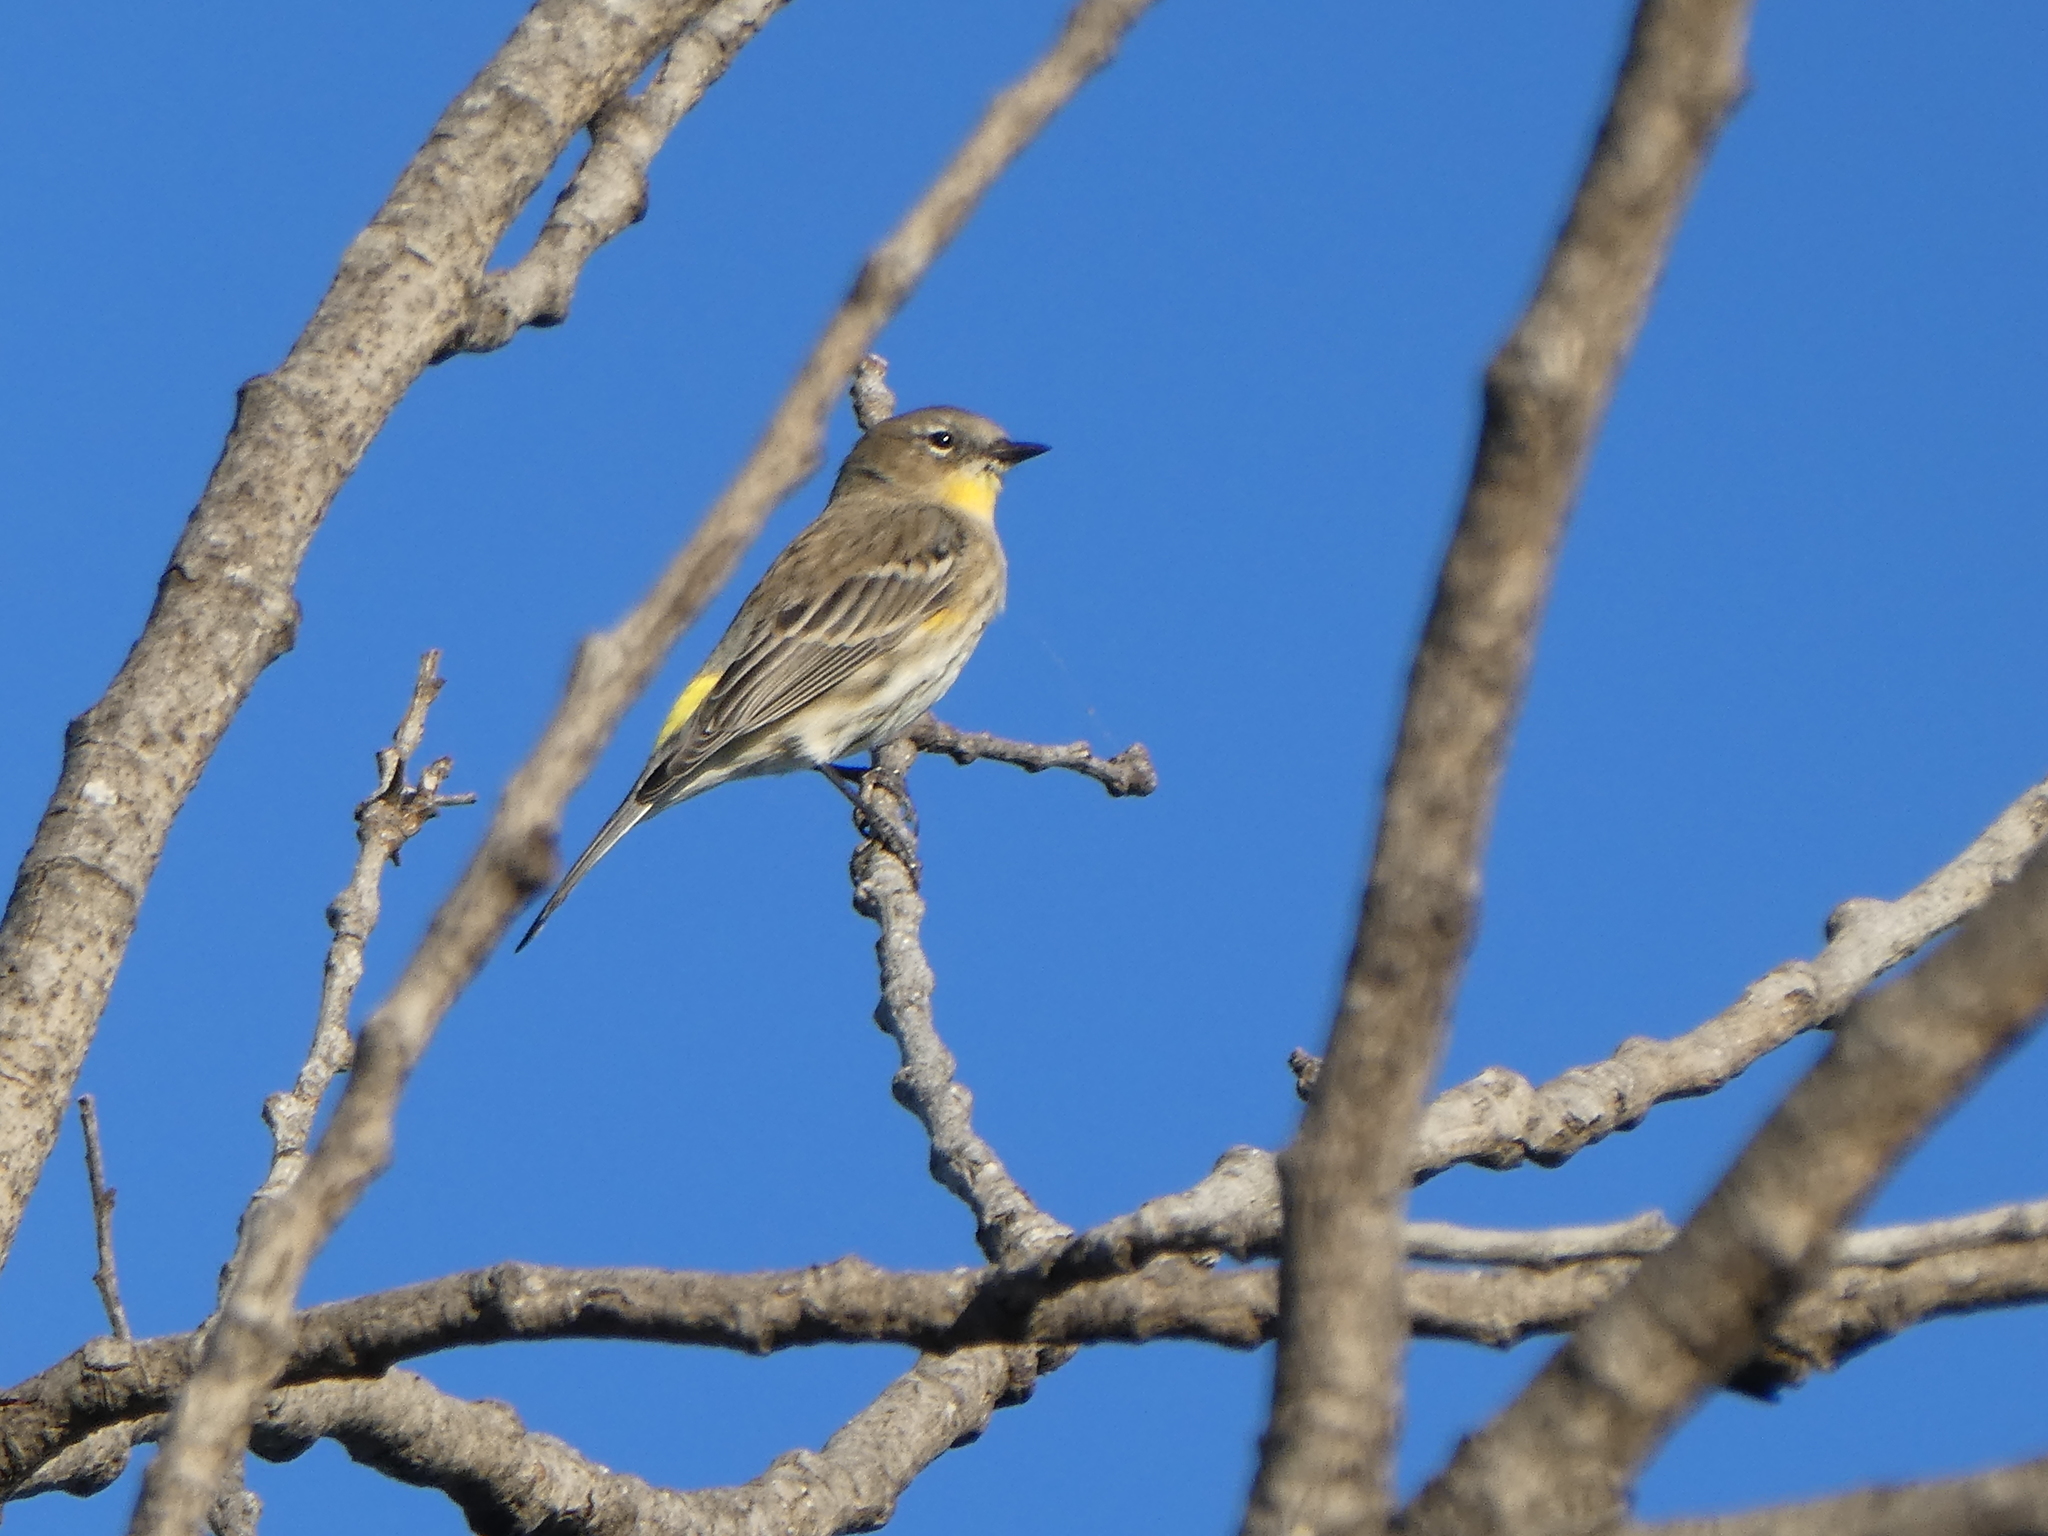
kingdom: Animalia
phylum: Chordata
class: Aves
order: Passeriformes
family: Parulidae
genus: Setophaga
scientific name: Setophaga coronata
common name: Myrtle warbler
